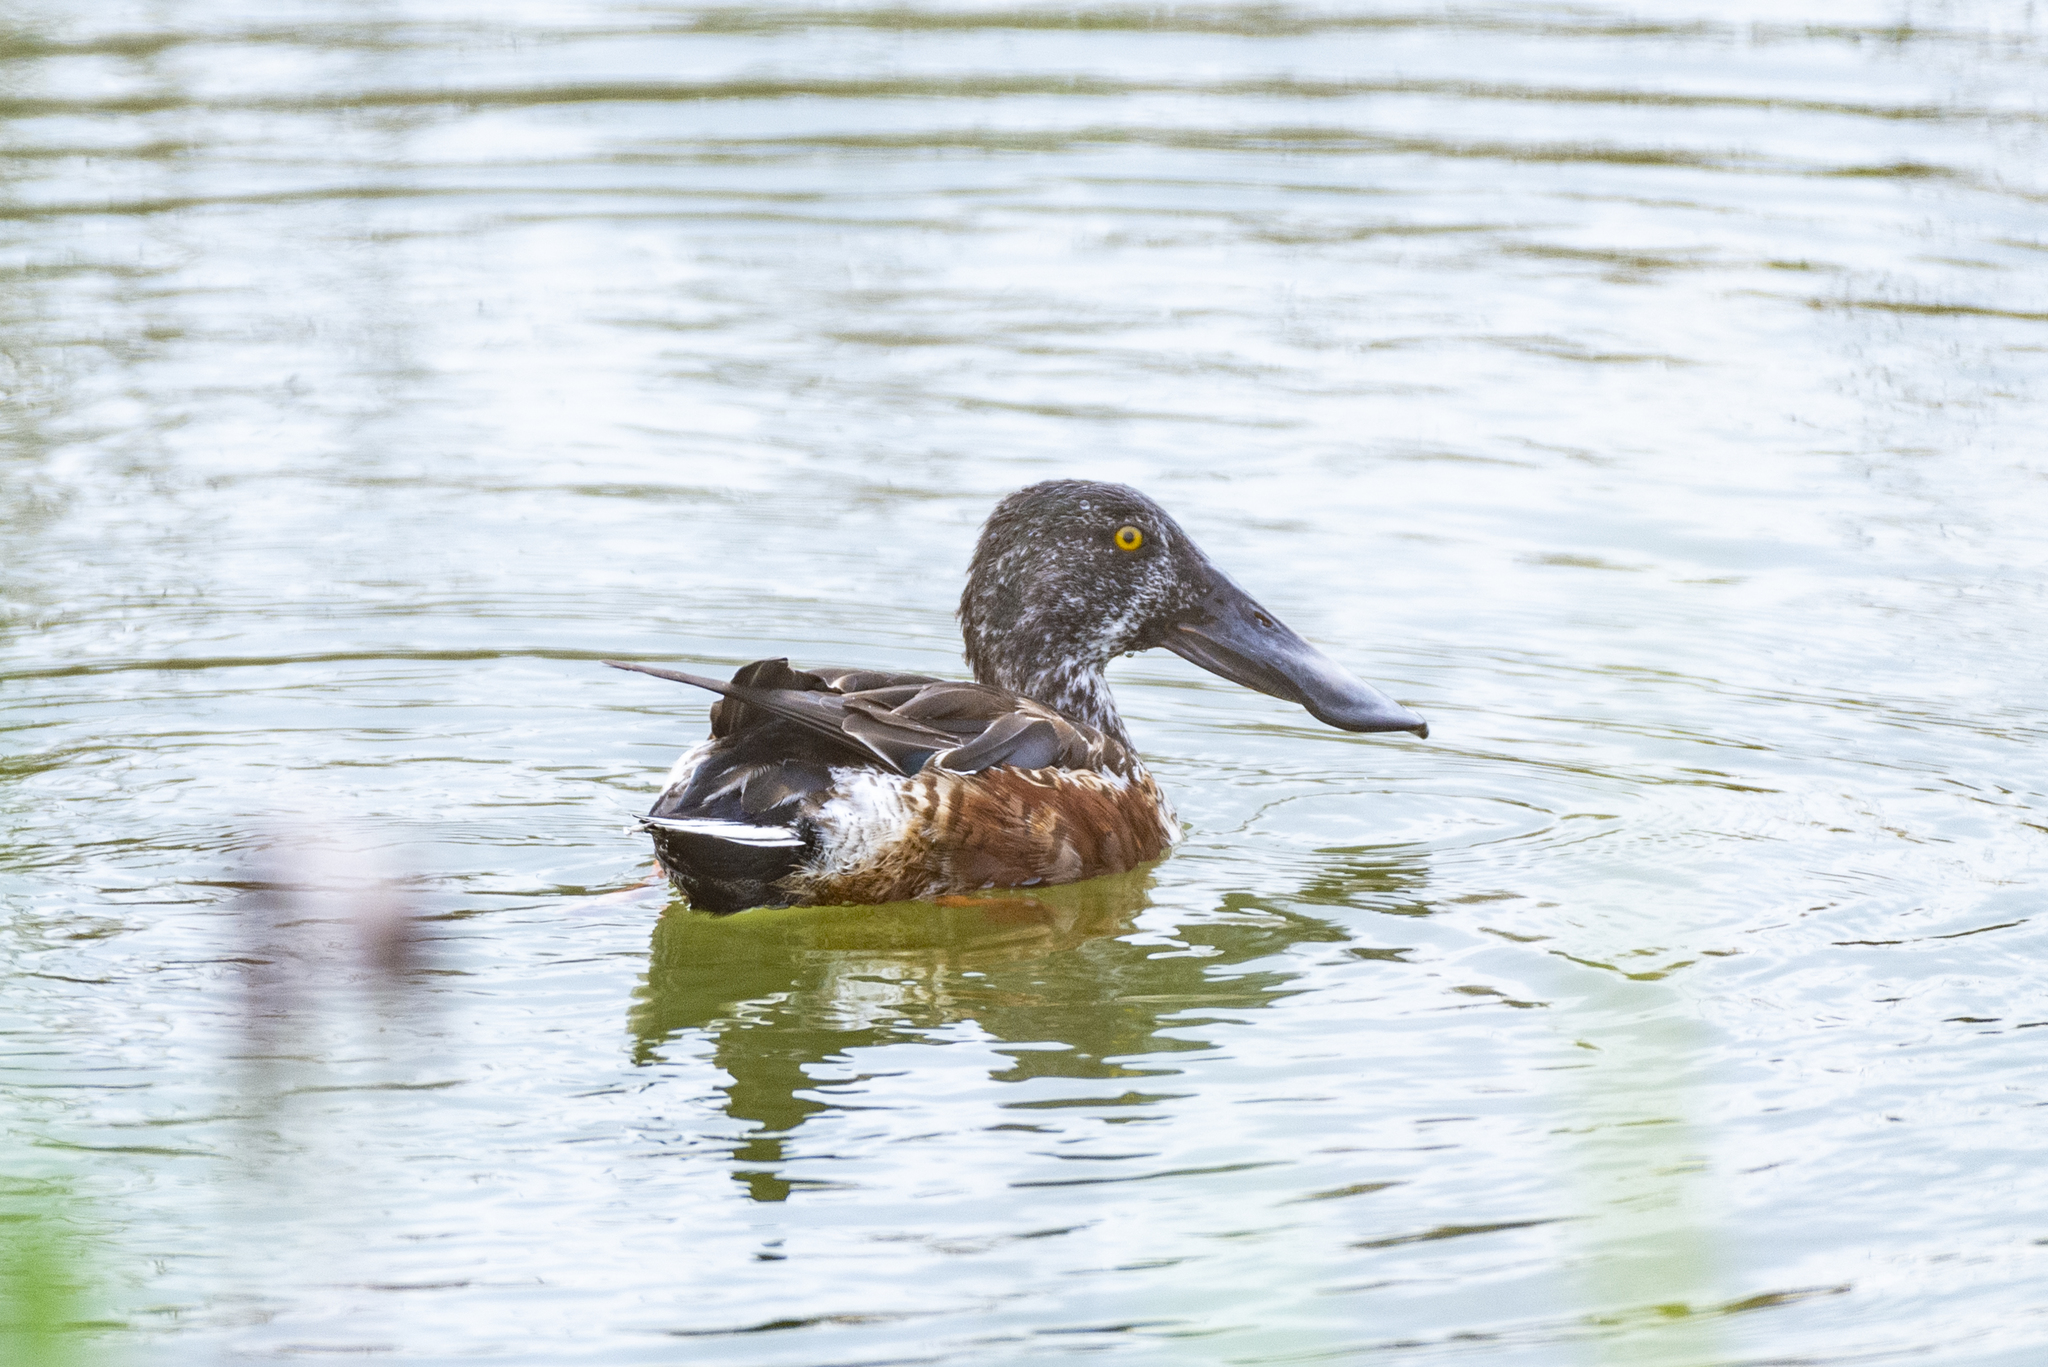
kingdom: Animalia
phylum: Chordata
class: Aves
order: Anseriformes
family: Anatidae
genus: Spatula
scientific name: Spatula clypeata
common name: Northern shoveler
